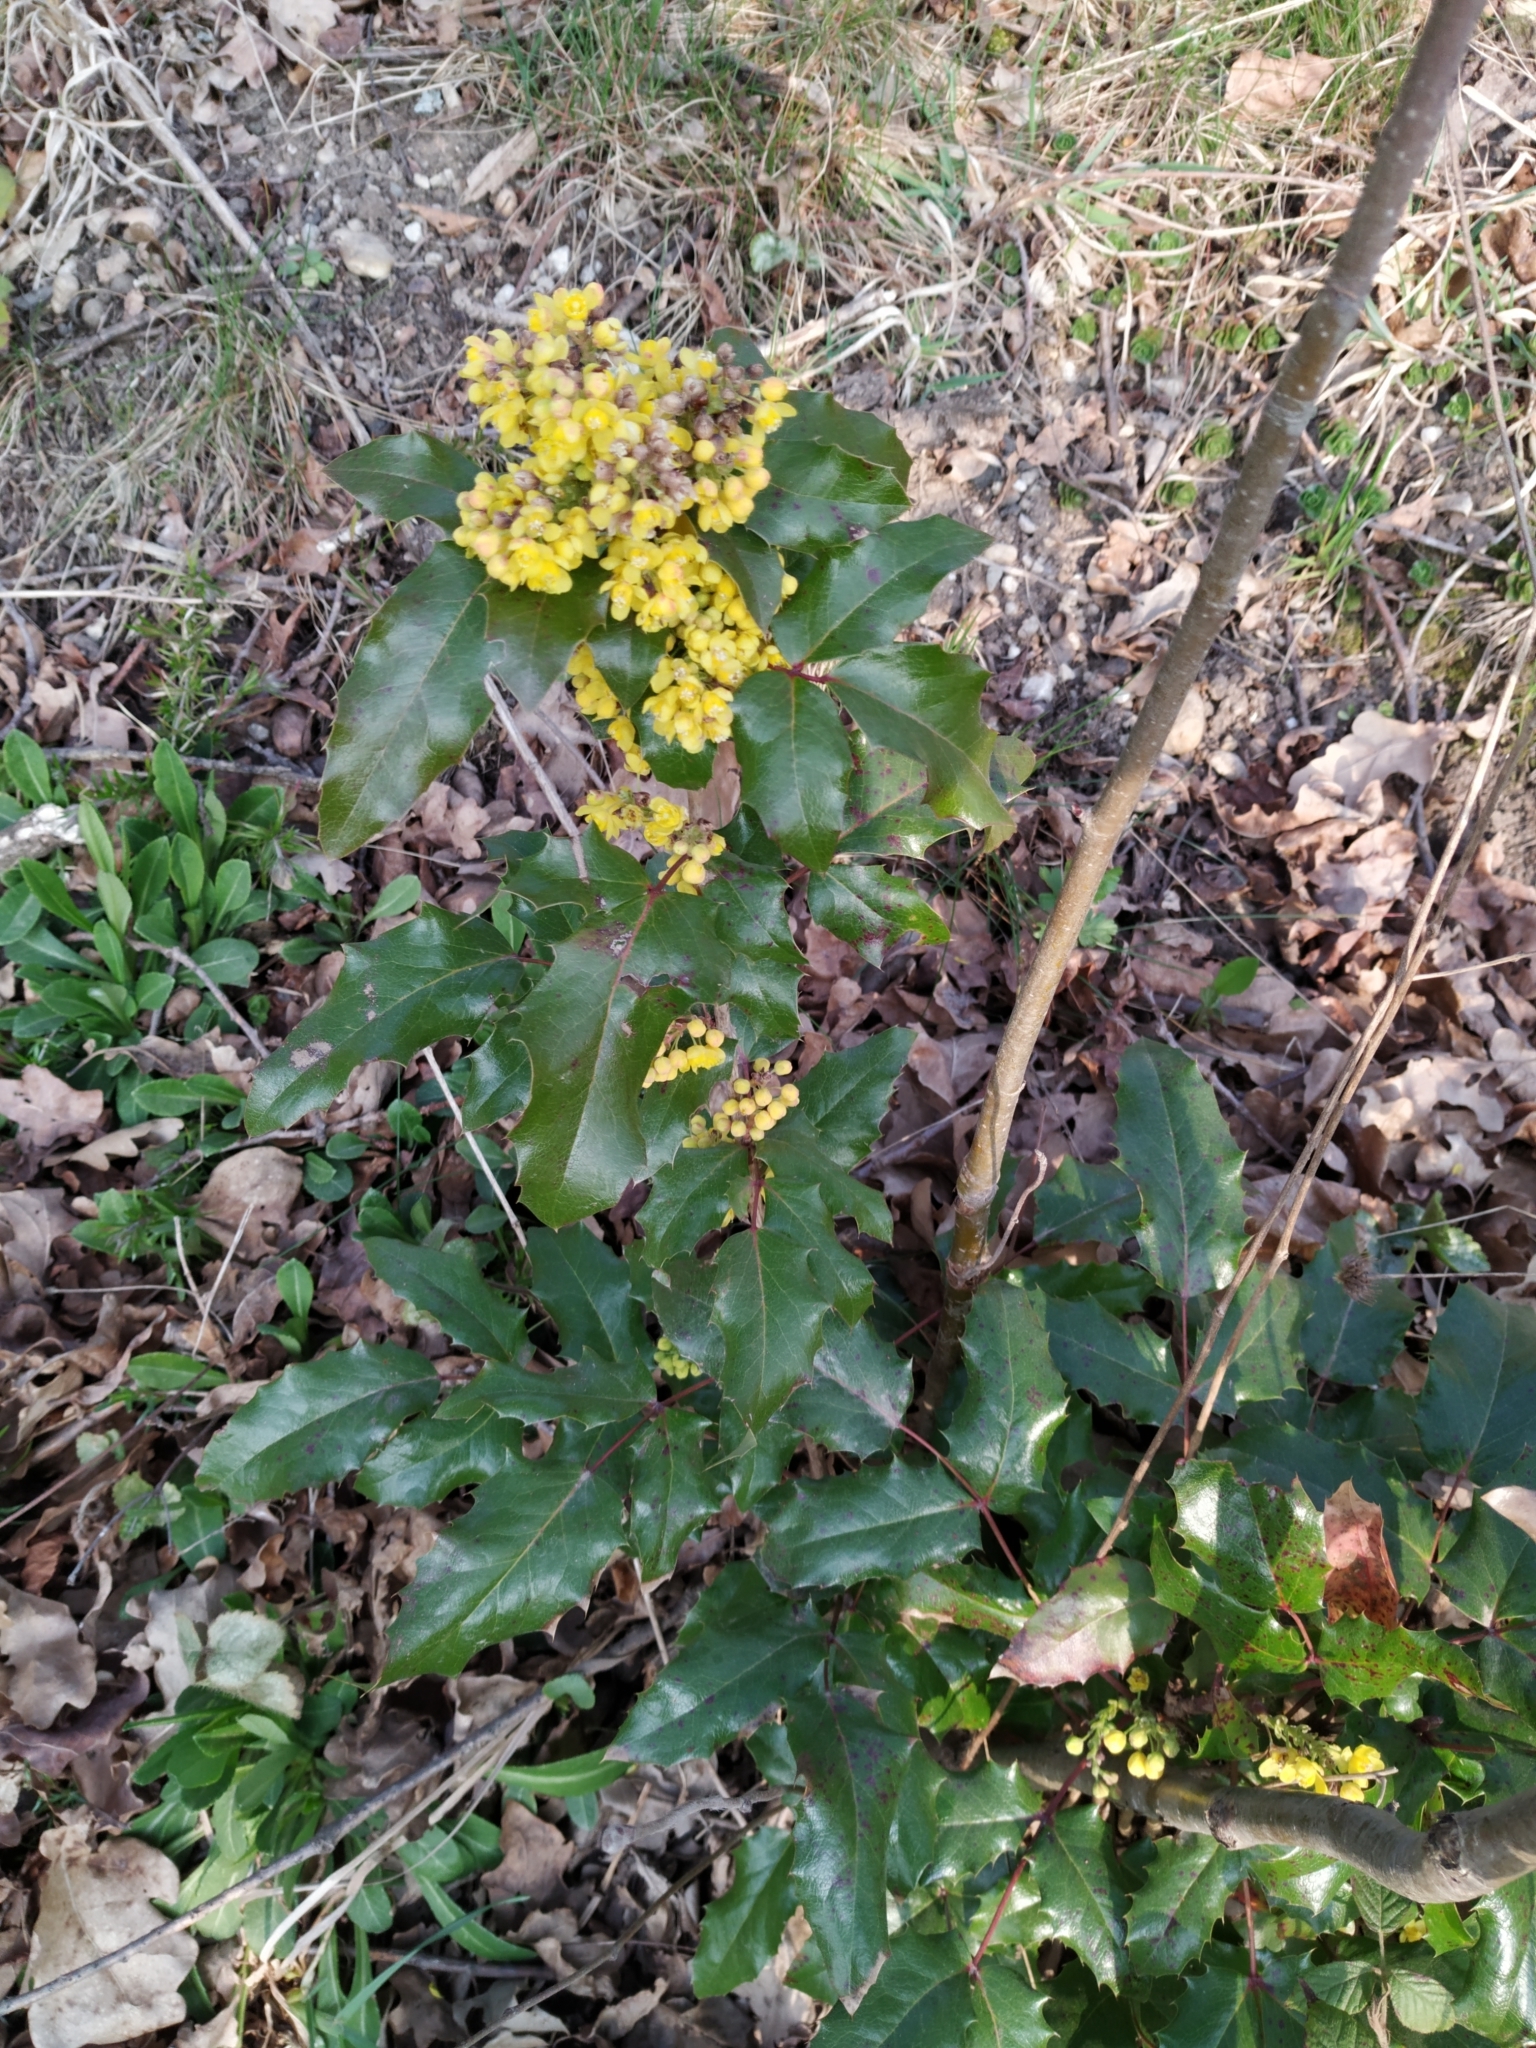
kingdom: Plantae
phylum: Tracheophyta
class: Magnoliopsida
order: Ranunculales
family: Berberidaceae
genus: Mahonia
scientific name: Mahonia aquifolium
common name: Oregon-grape
